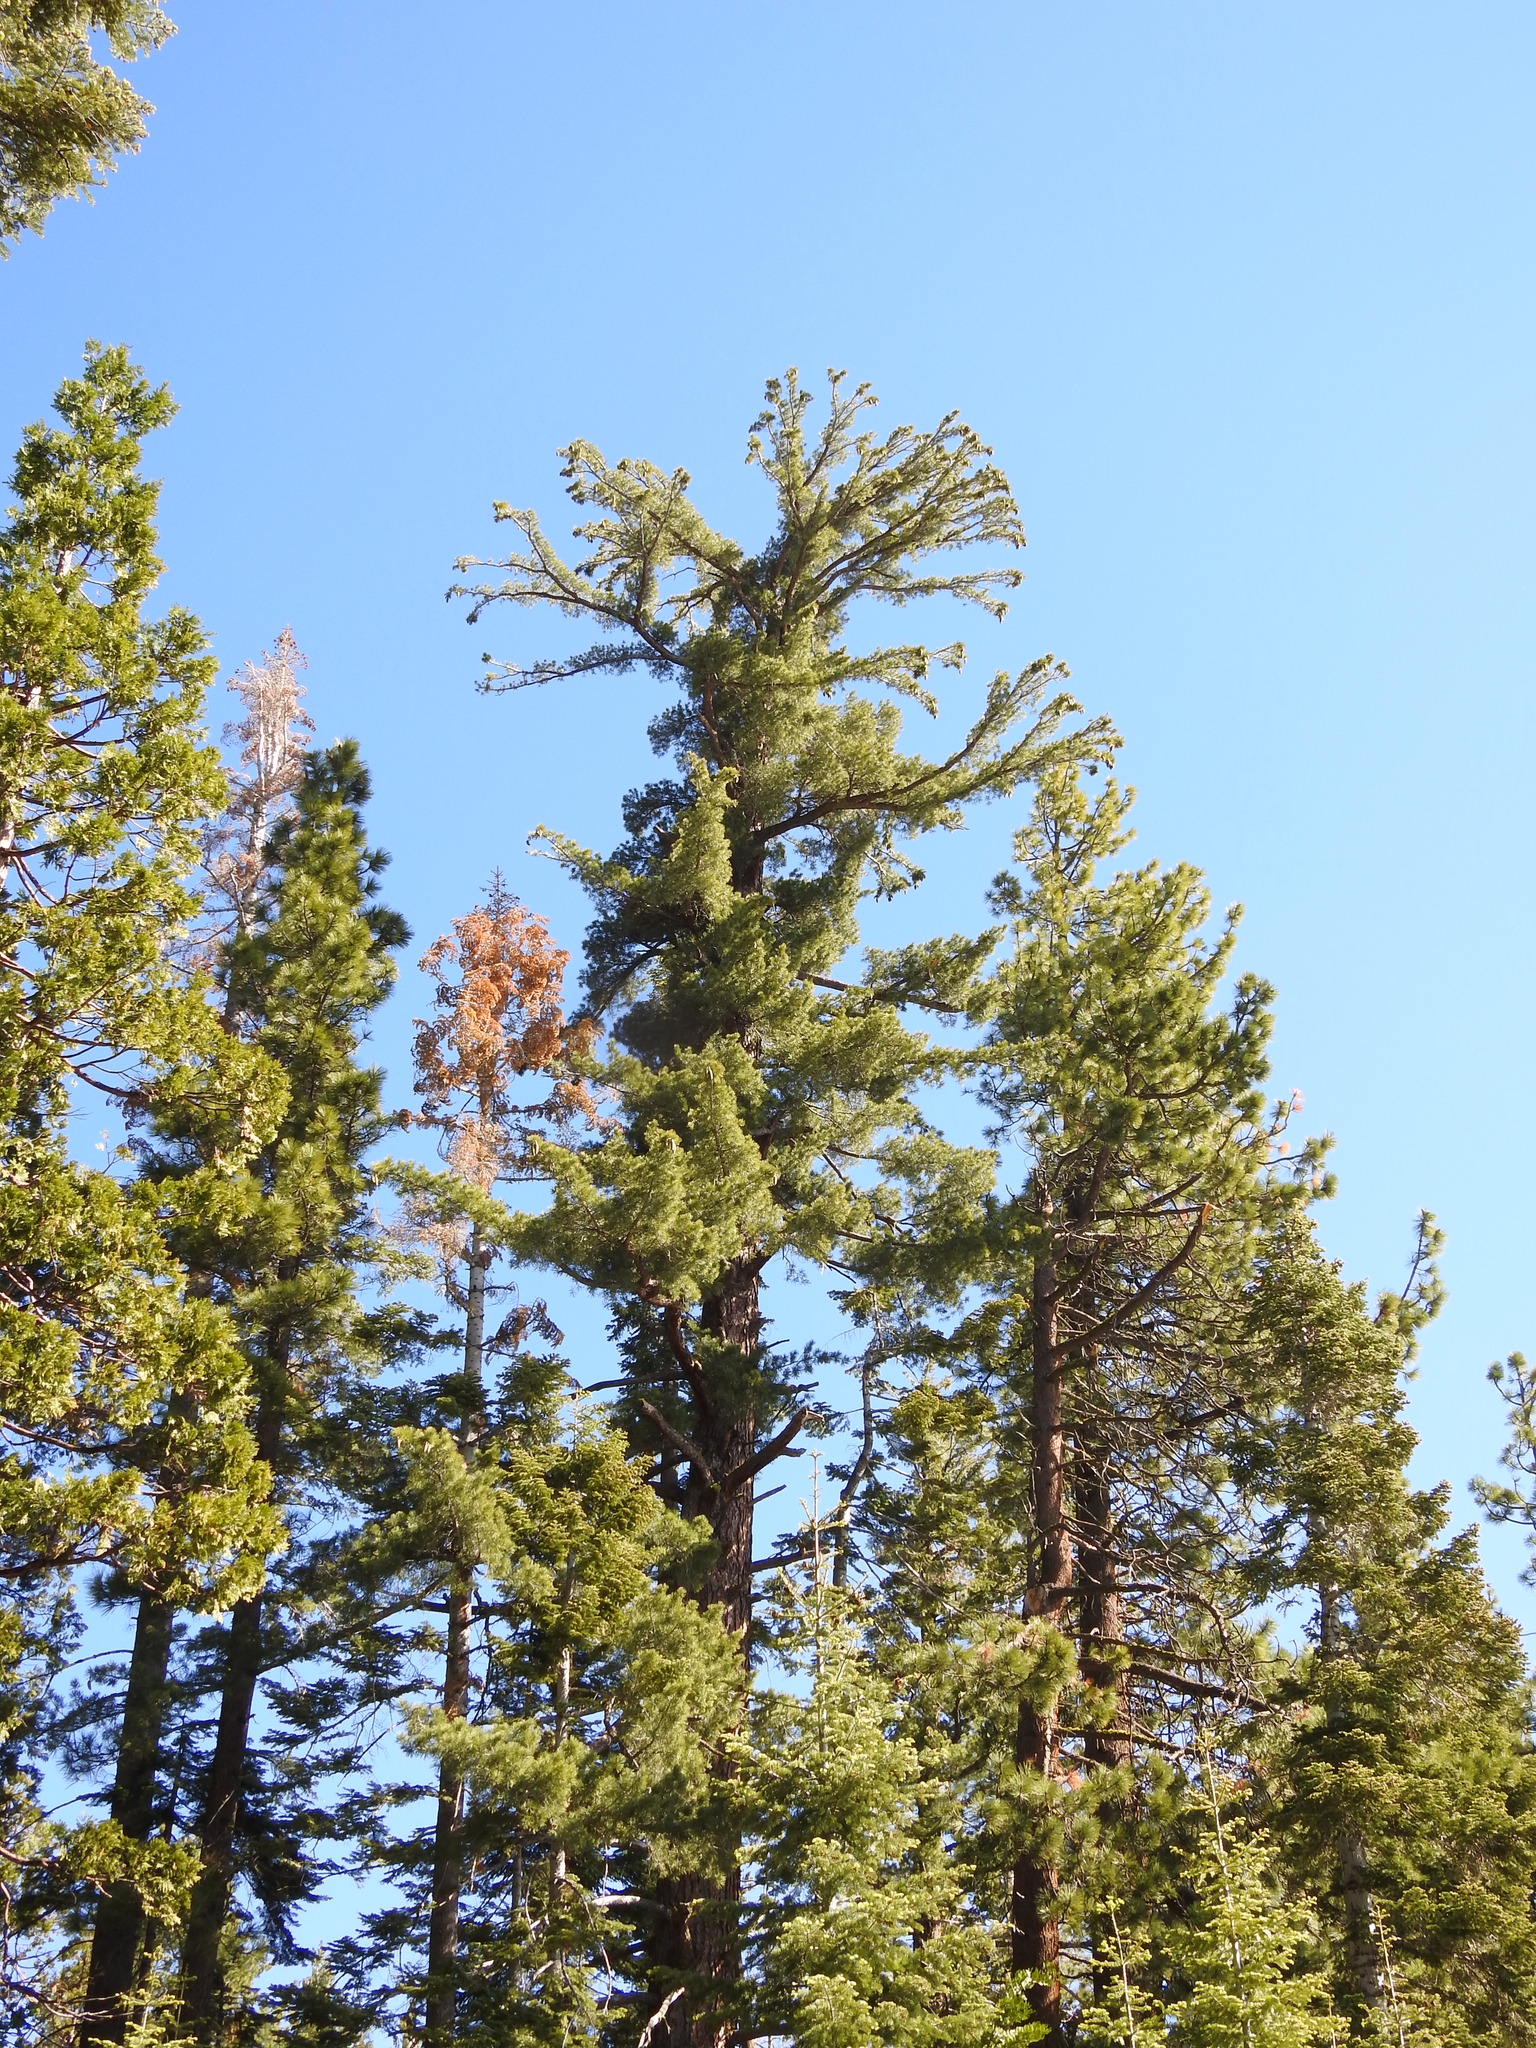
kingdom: Plantae
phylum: Tracheophyta
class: Pinopsida
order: Pinales
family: Pinaceae
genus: Pinus
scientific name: Pinus lambertiana
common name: Sugar pine
